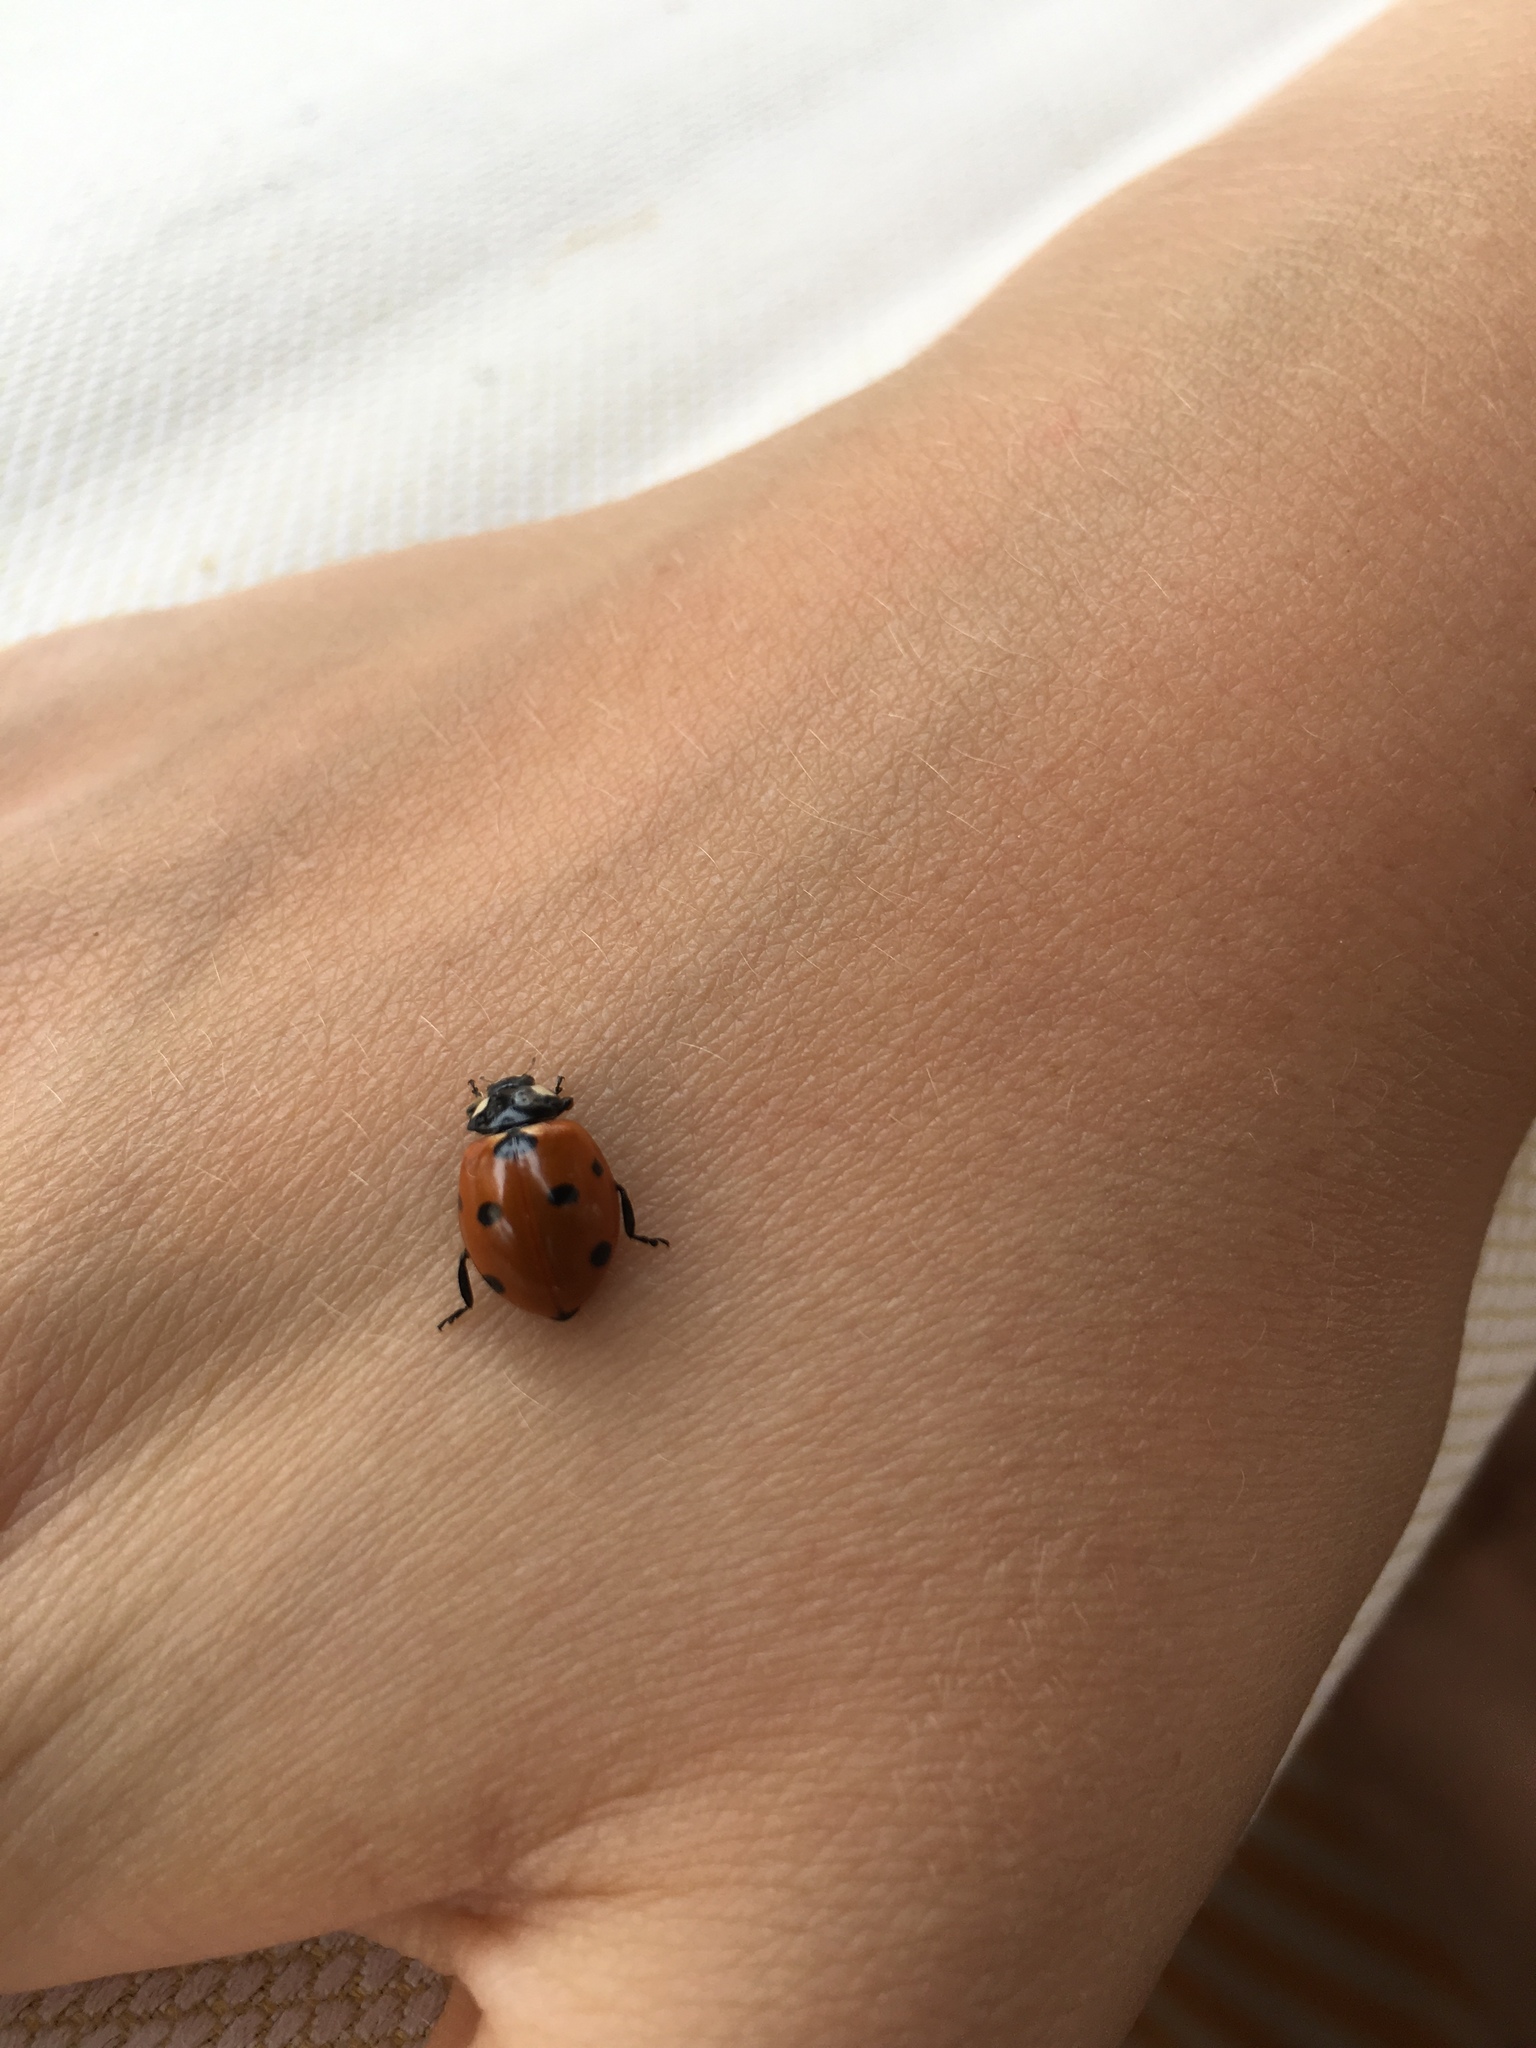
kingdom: Animalia
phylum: Arthropoda
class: Insecta
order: Coleoptera
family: Coccinellidae
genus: Coccinella
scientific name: Coccinella septempunctata
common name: Sevenspotted lady beetle
